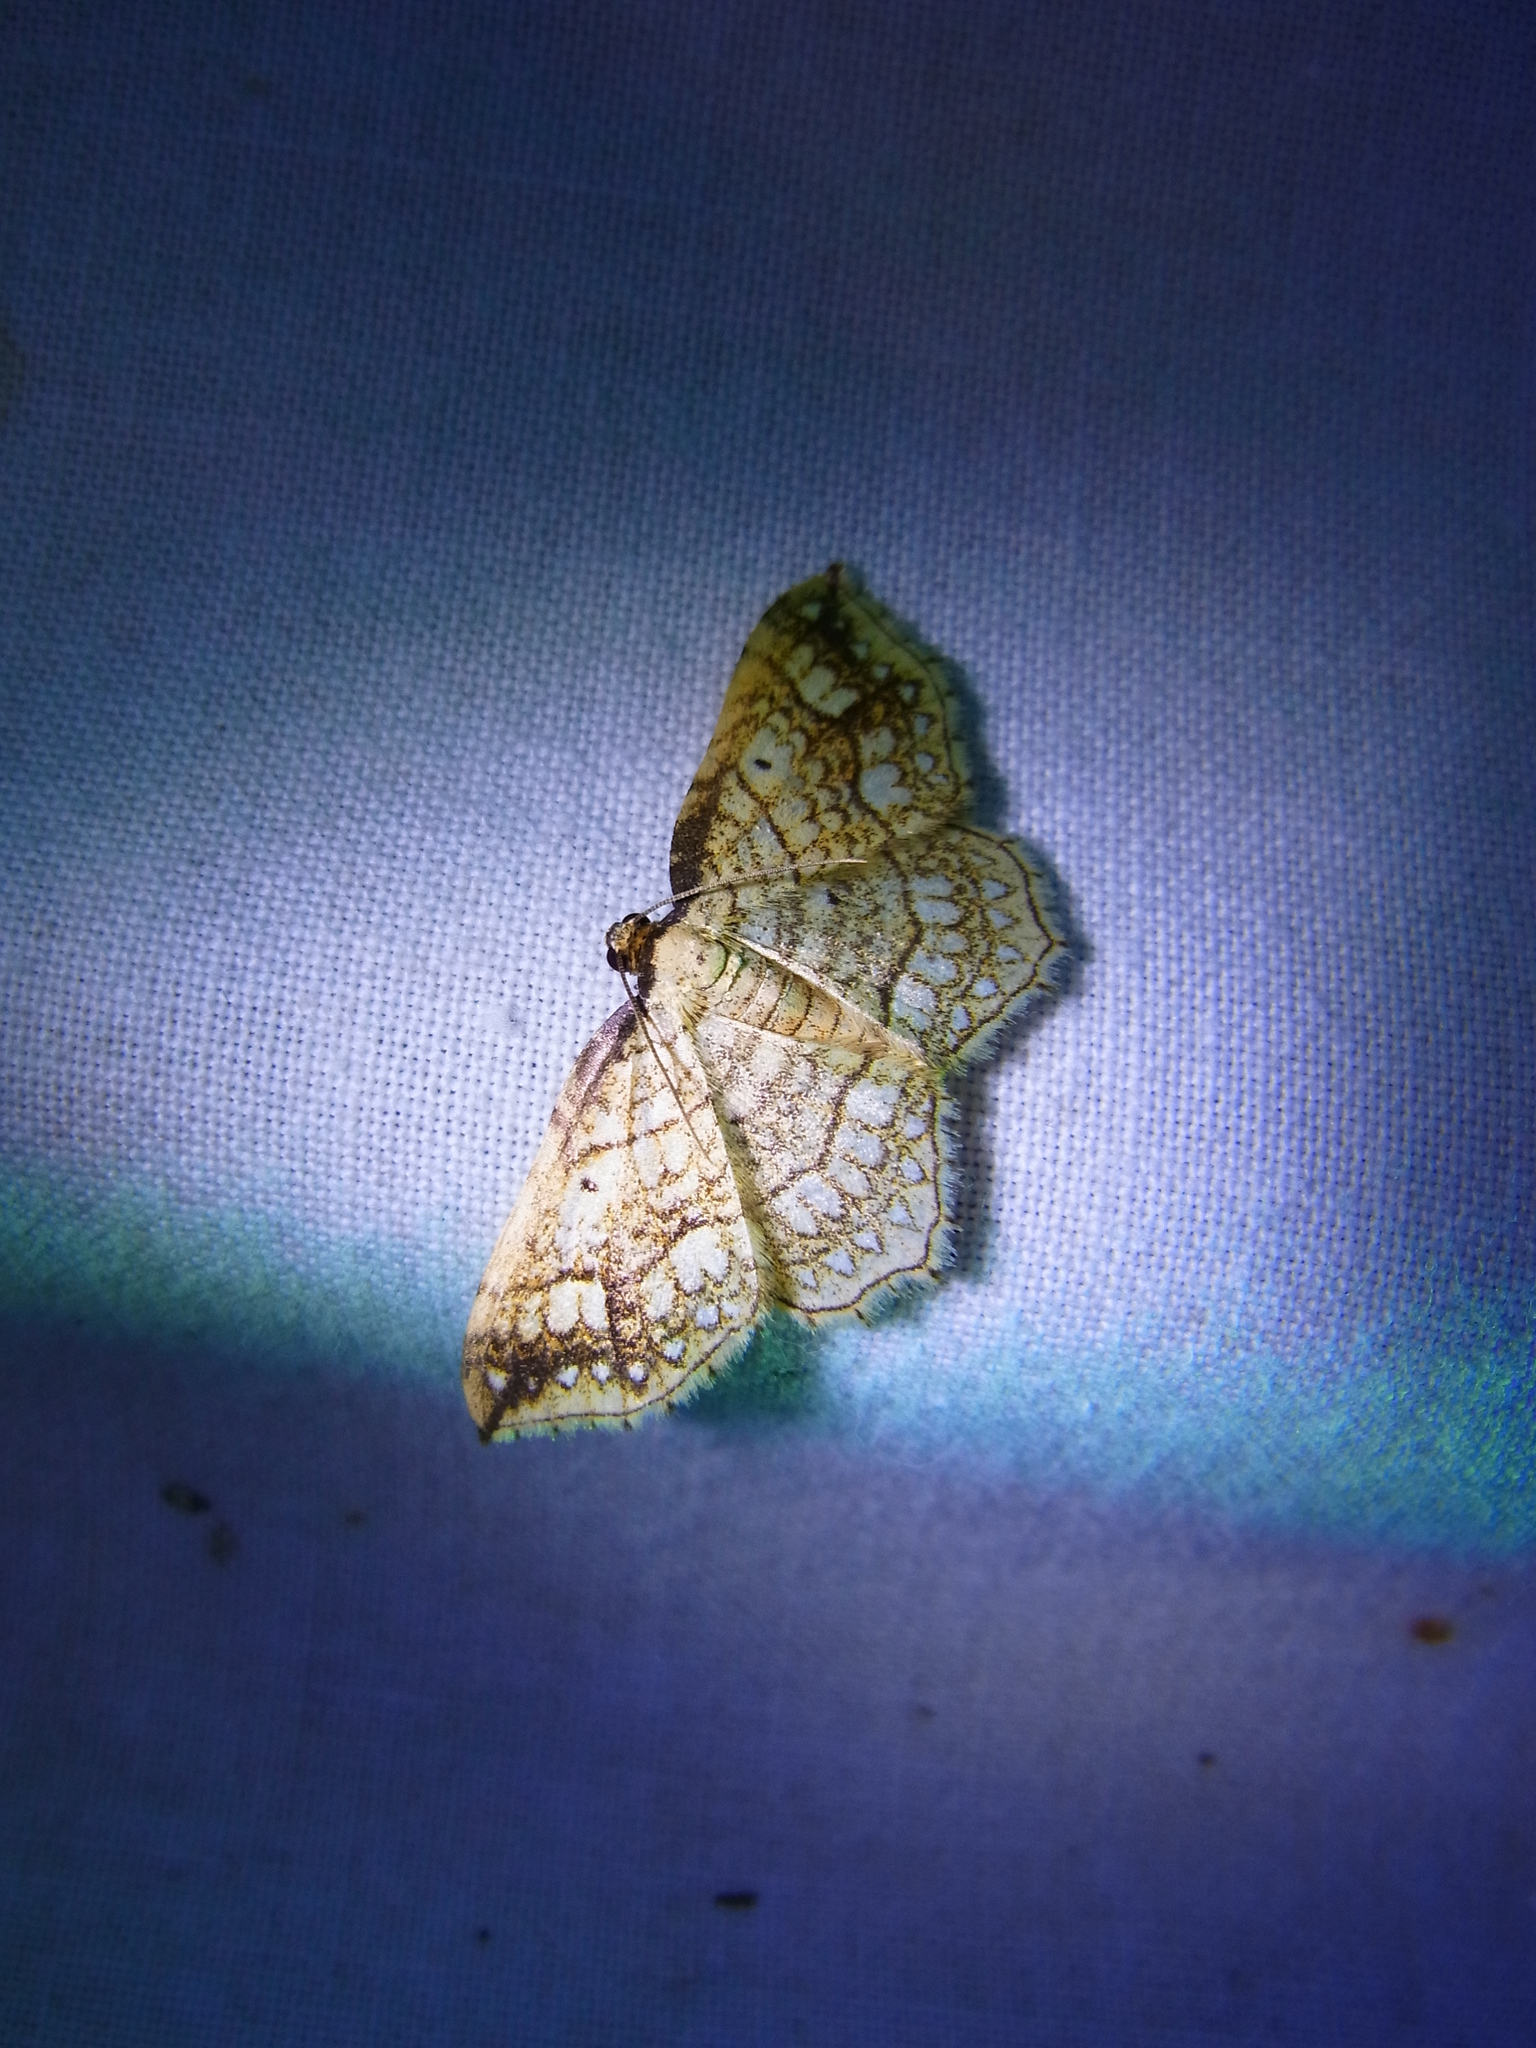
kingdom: Animalia
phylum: Arthropoda
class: Insecta
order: Lepidoptera
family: Geometridae
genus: Laciniodes
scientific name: Laciniodes unistirpis
